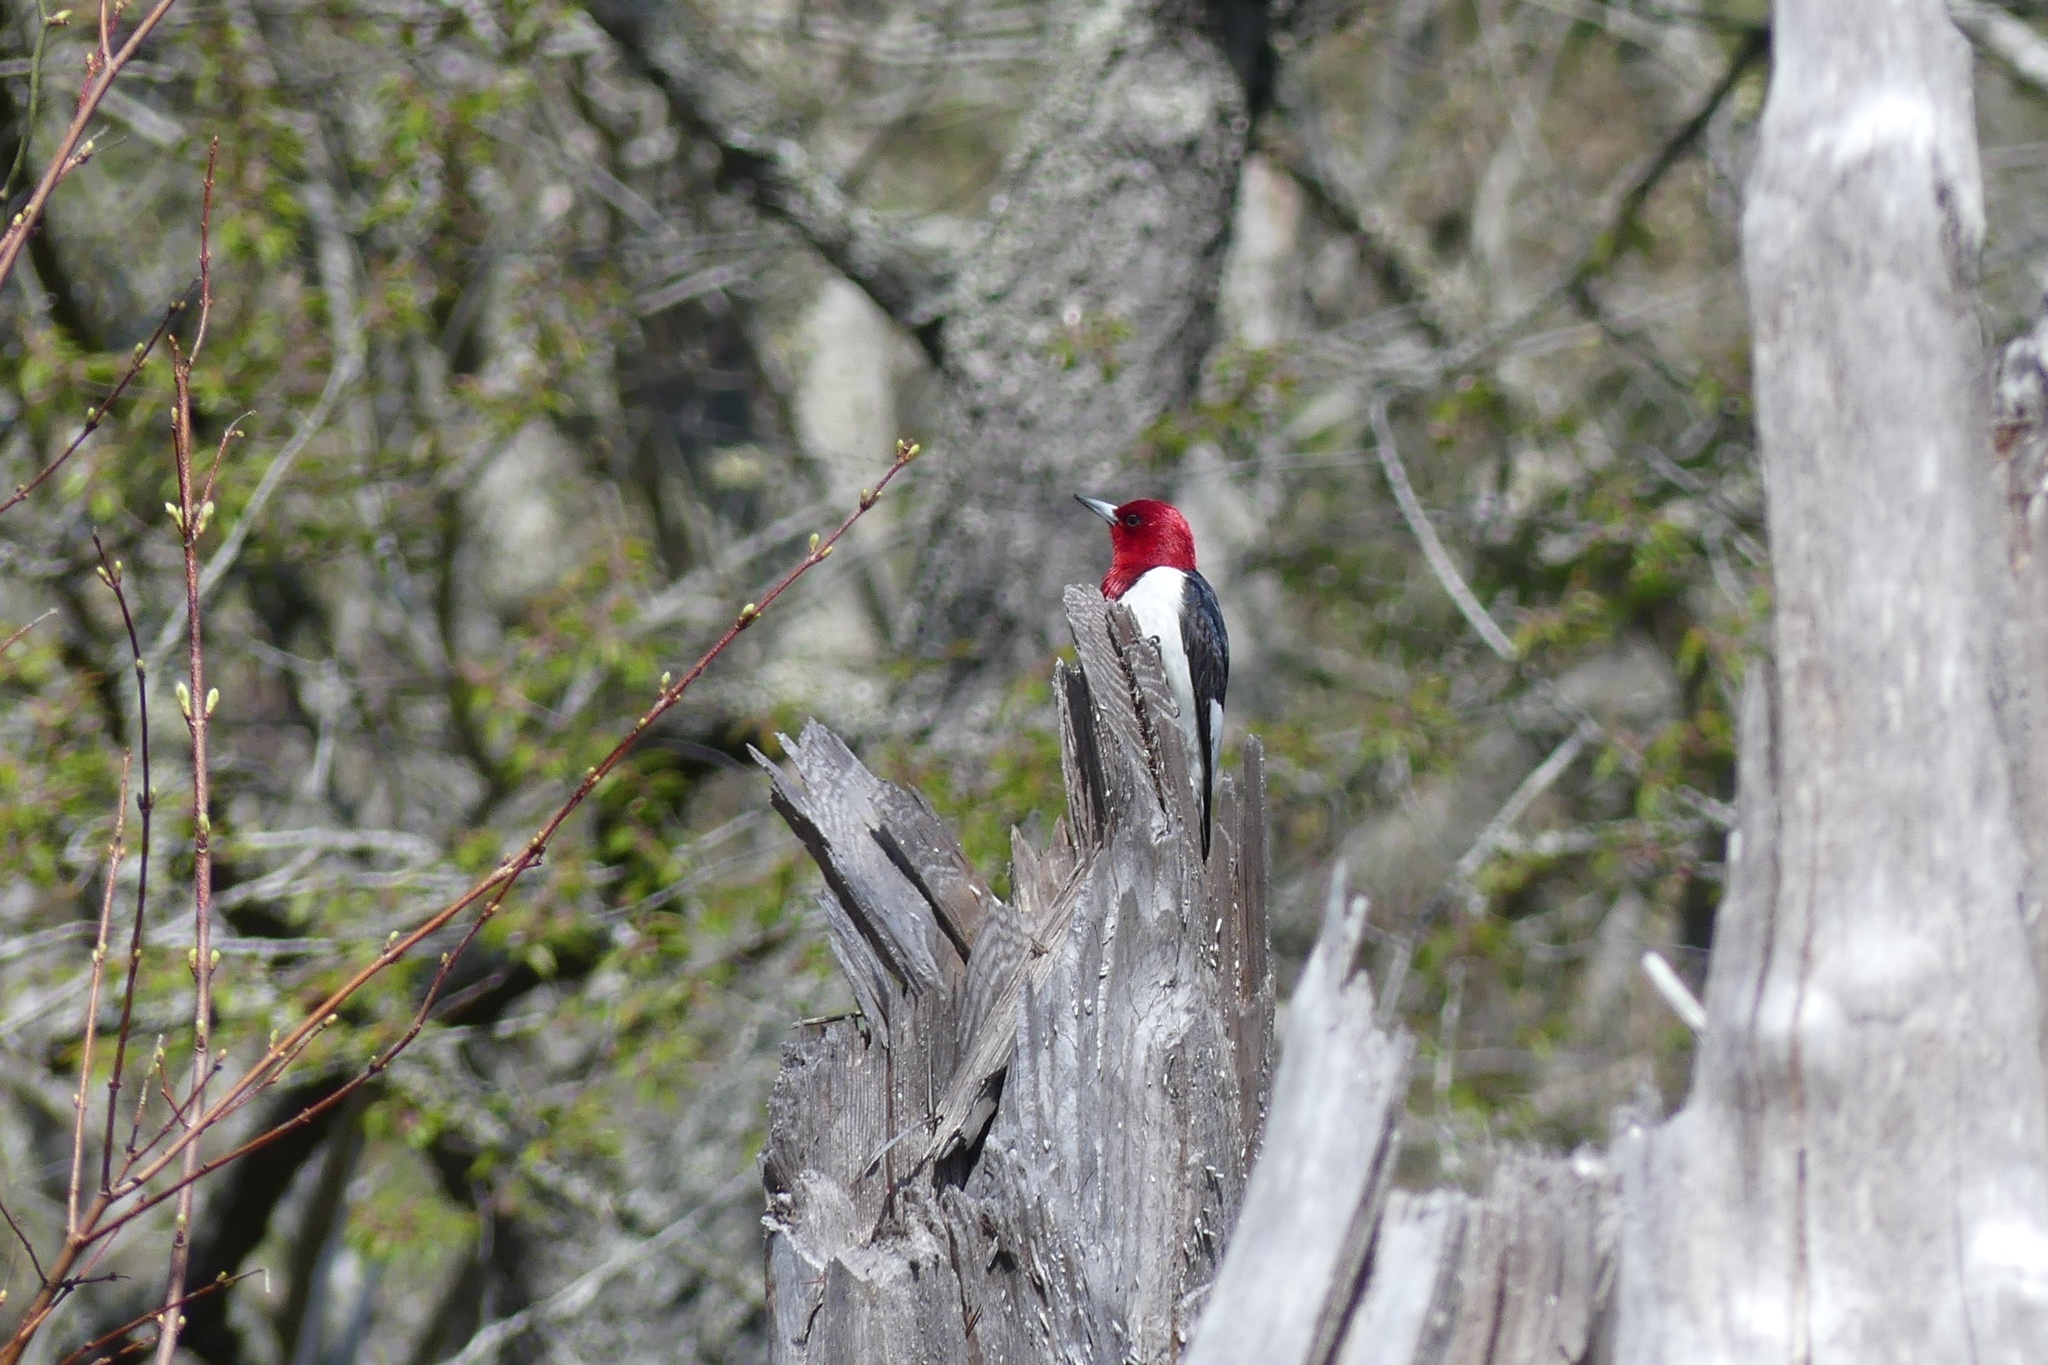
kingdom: Animalia
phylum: Chordata
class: Aves
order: Piciformes
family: Picidae
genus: Melanerpes
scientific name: Melanerpes erythrocephalus
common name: Red-headed woodpecker
